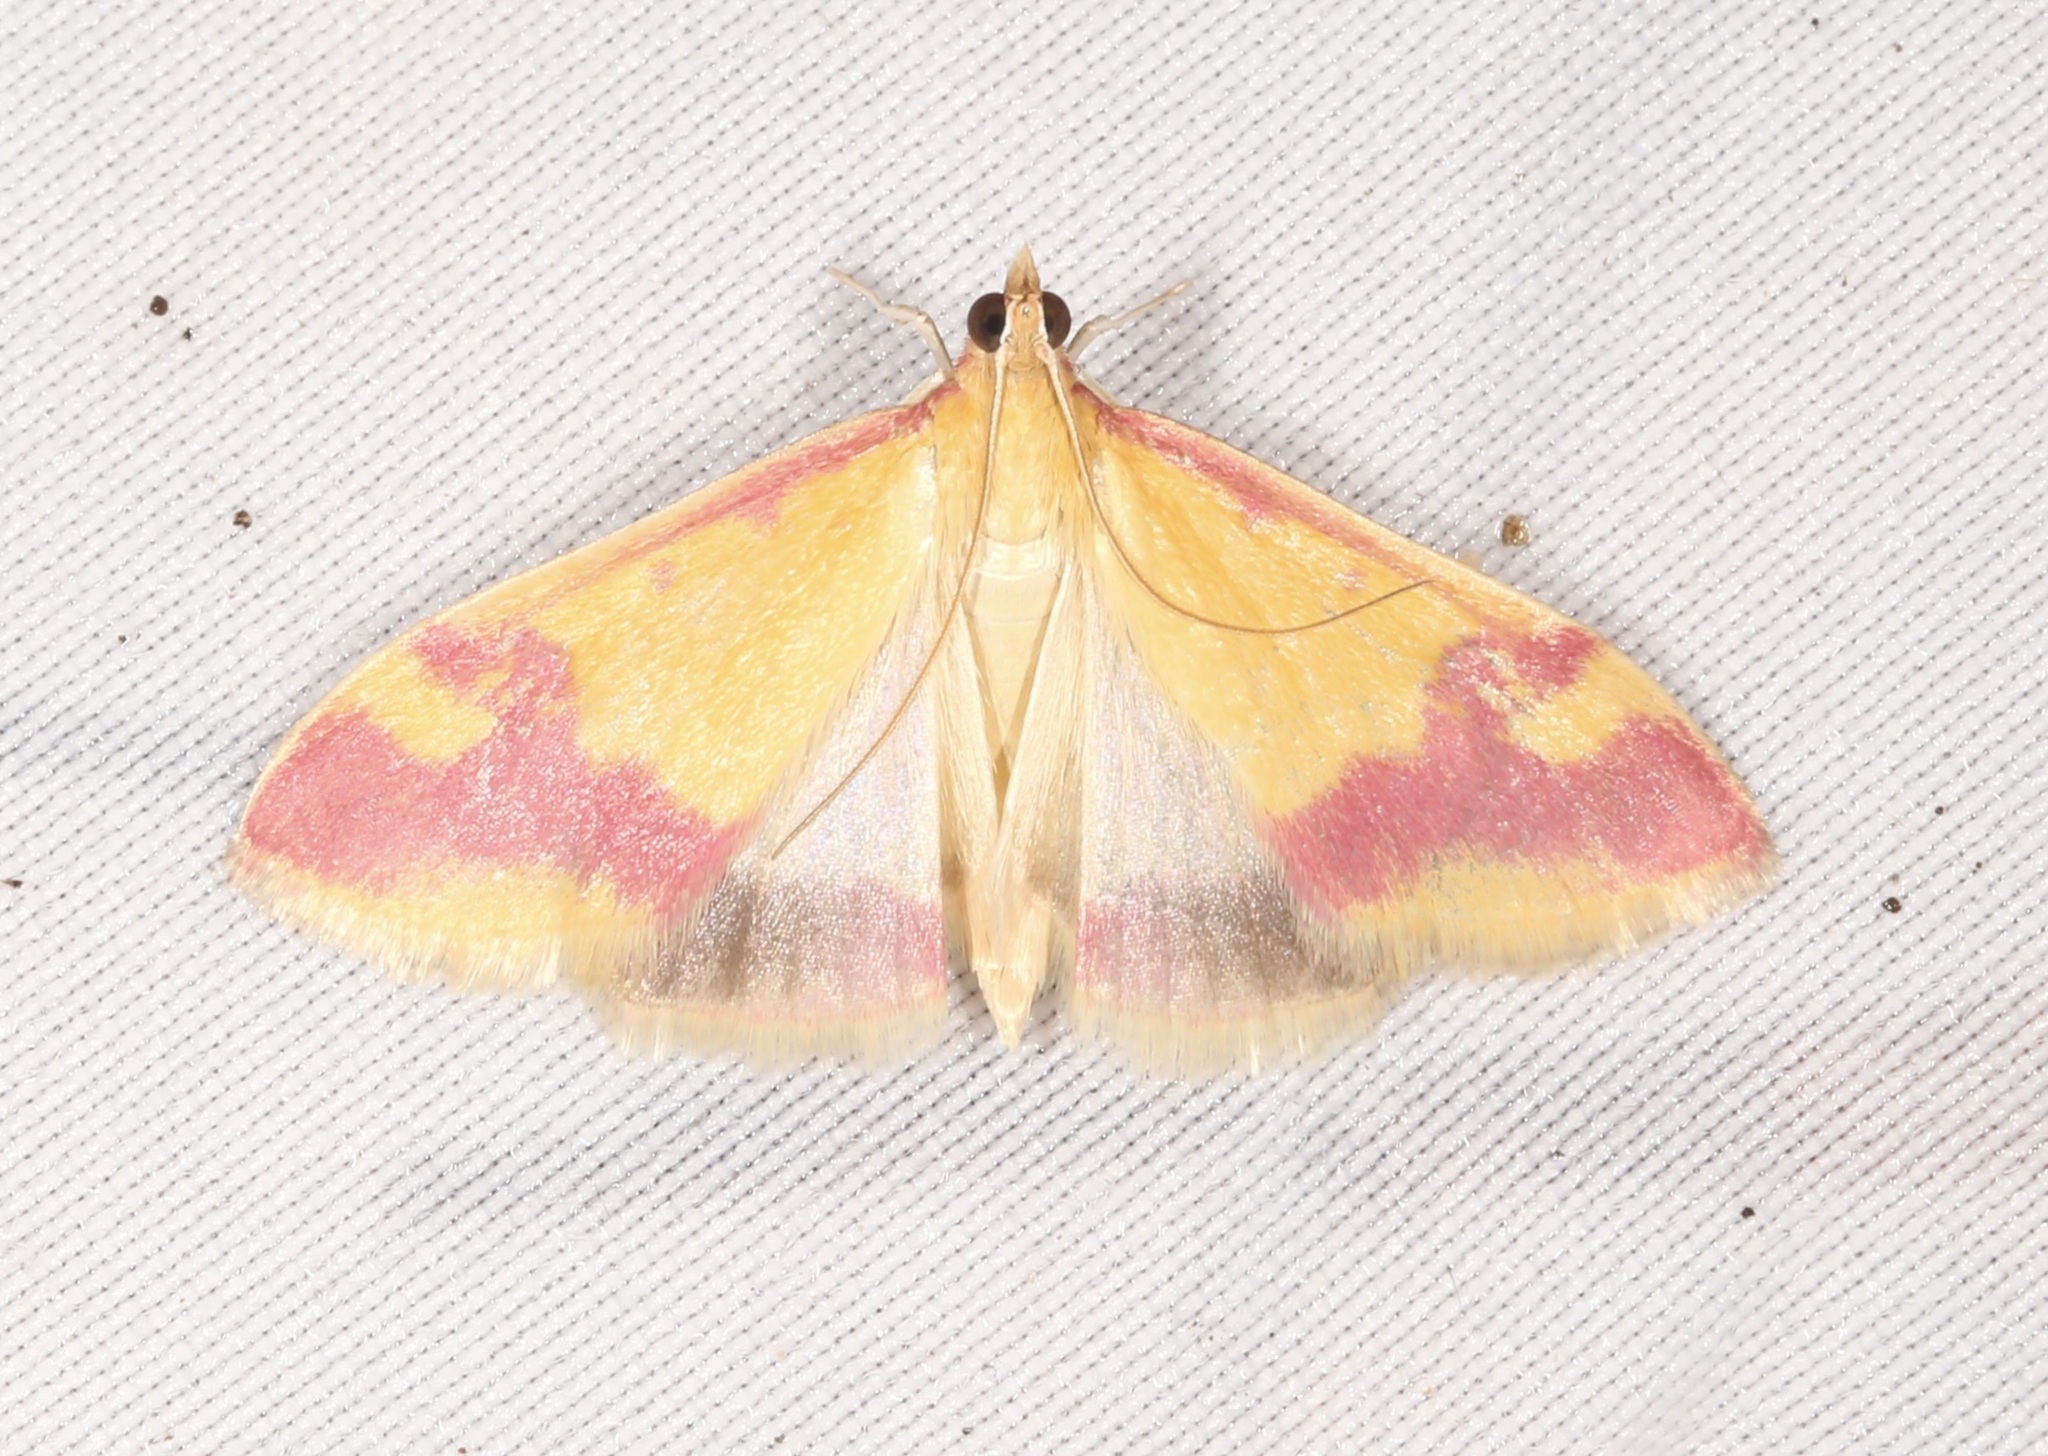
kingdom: Animalia
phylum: Arthropoda
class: Insecta
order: Lepidoptera
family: Crambidae
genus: Pyrausta
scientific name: Pyrausta scurralis
